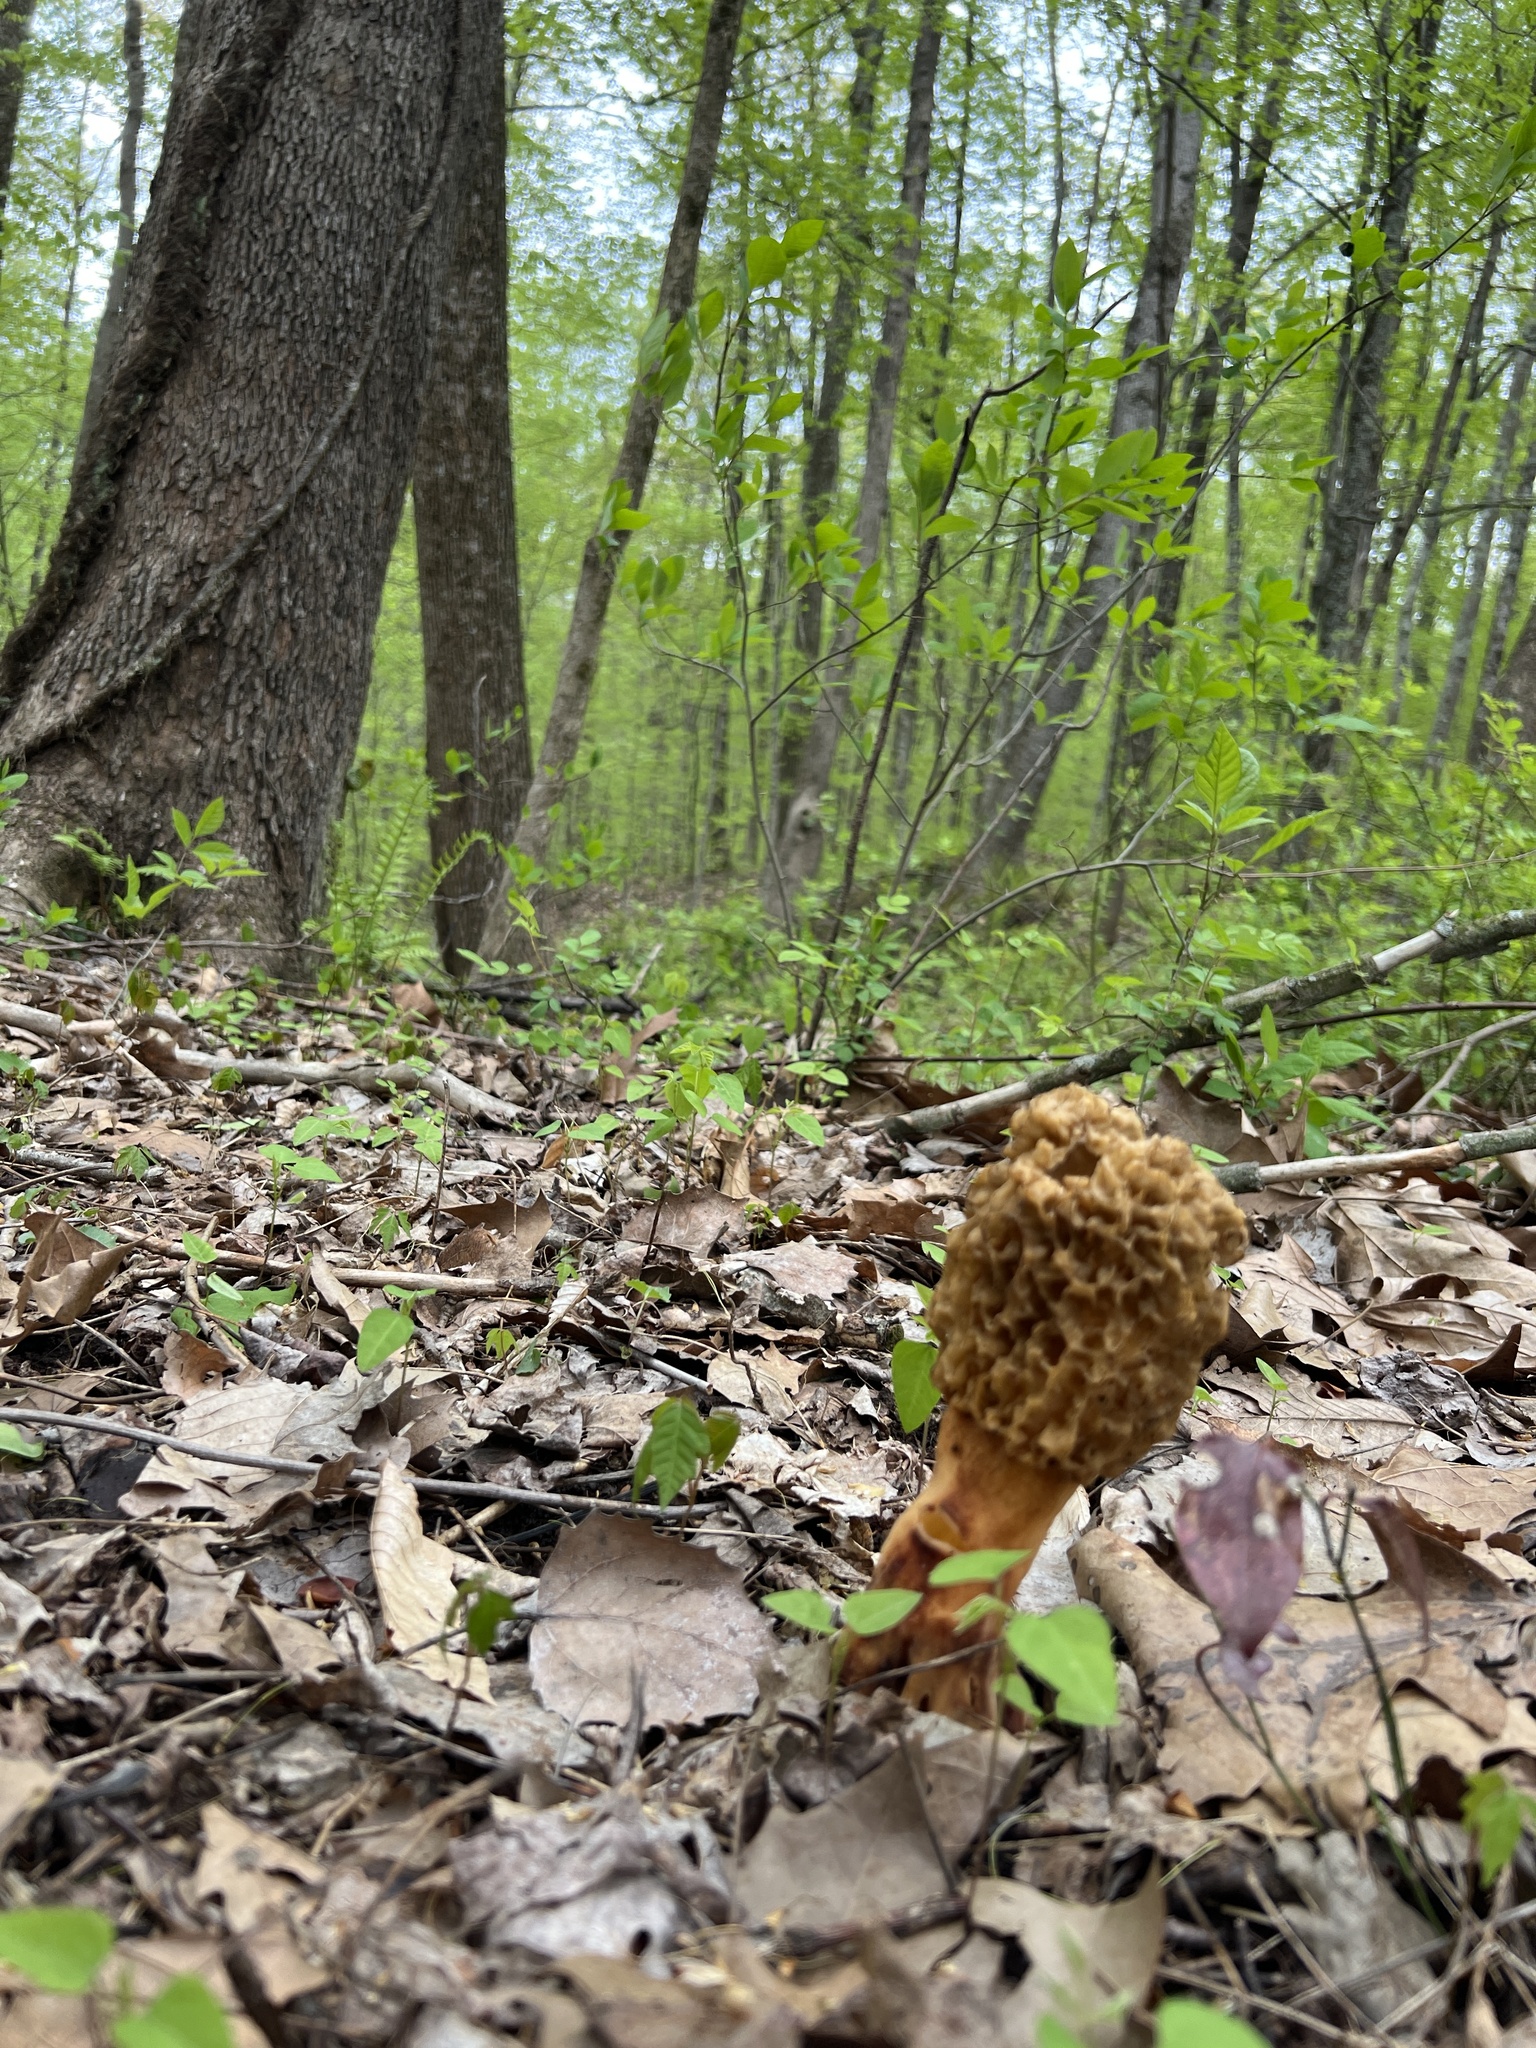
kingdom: Fungi
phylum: Ascomycota
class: Pezizomycetes
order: Pezizales
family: Morchellaceae
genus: Morchella
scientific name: Morchella americana
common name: White morel
